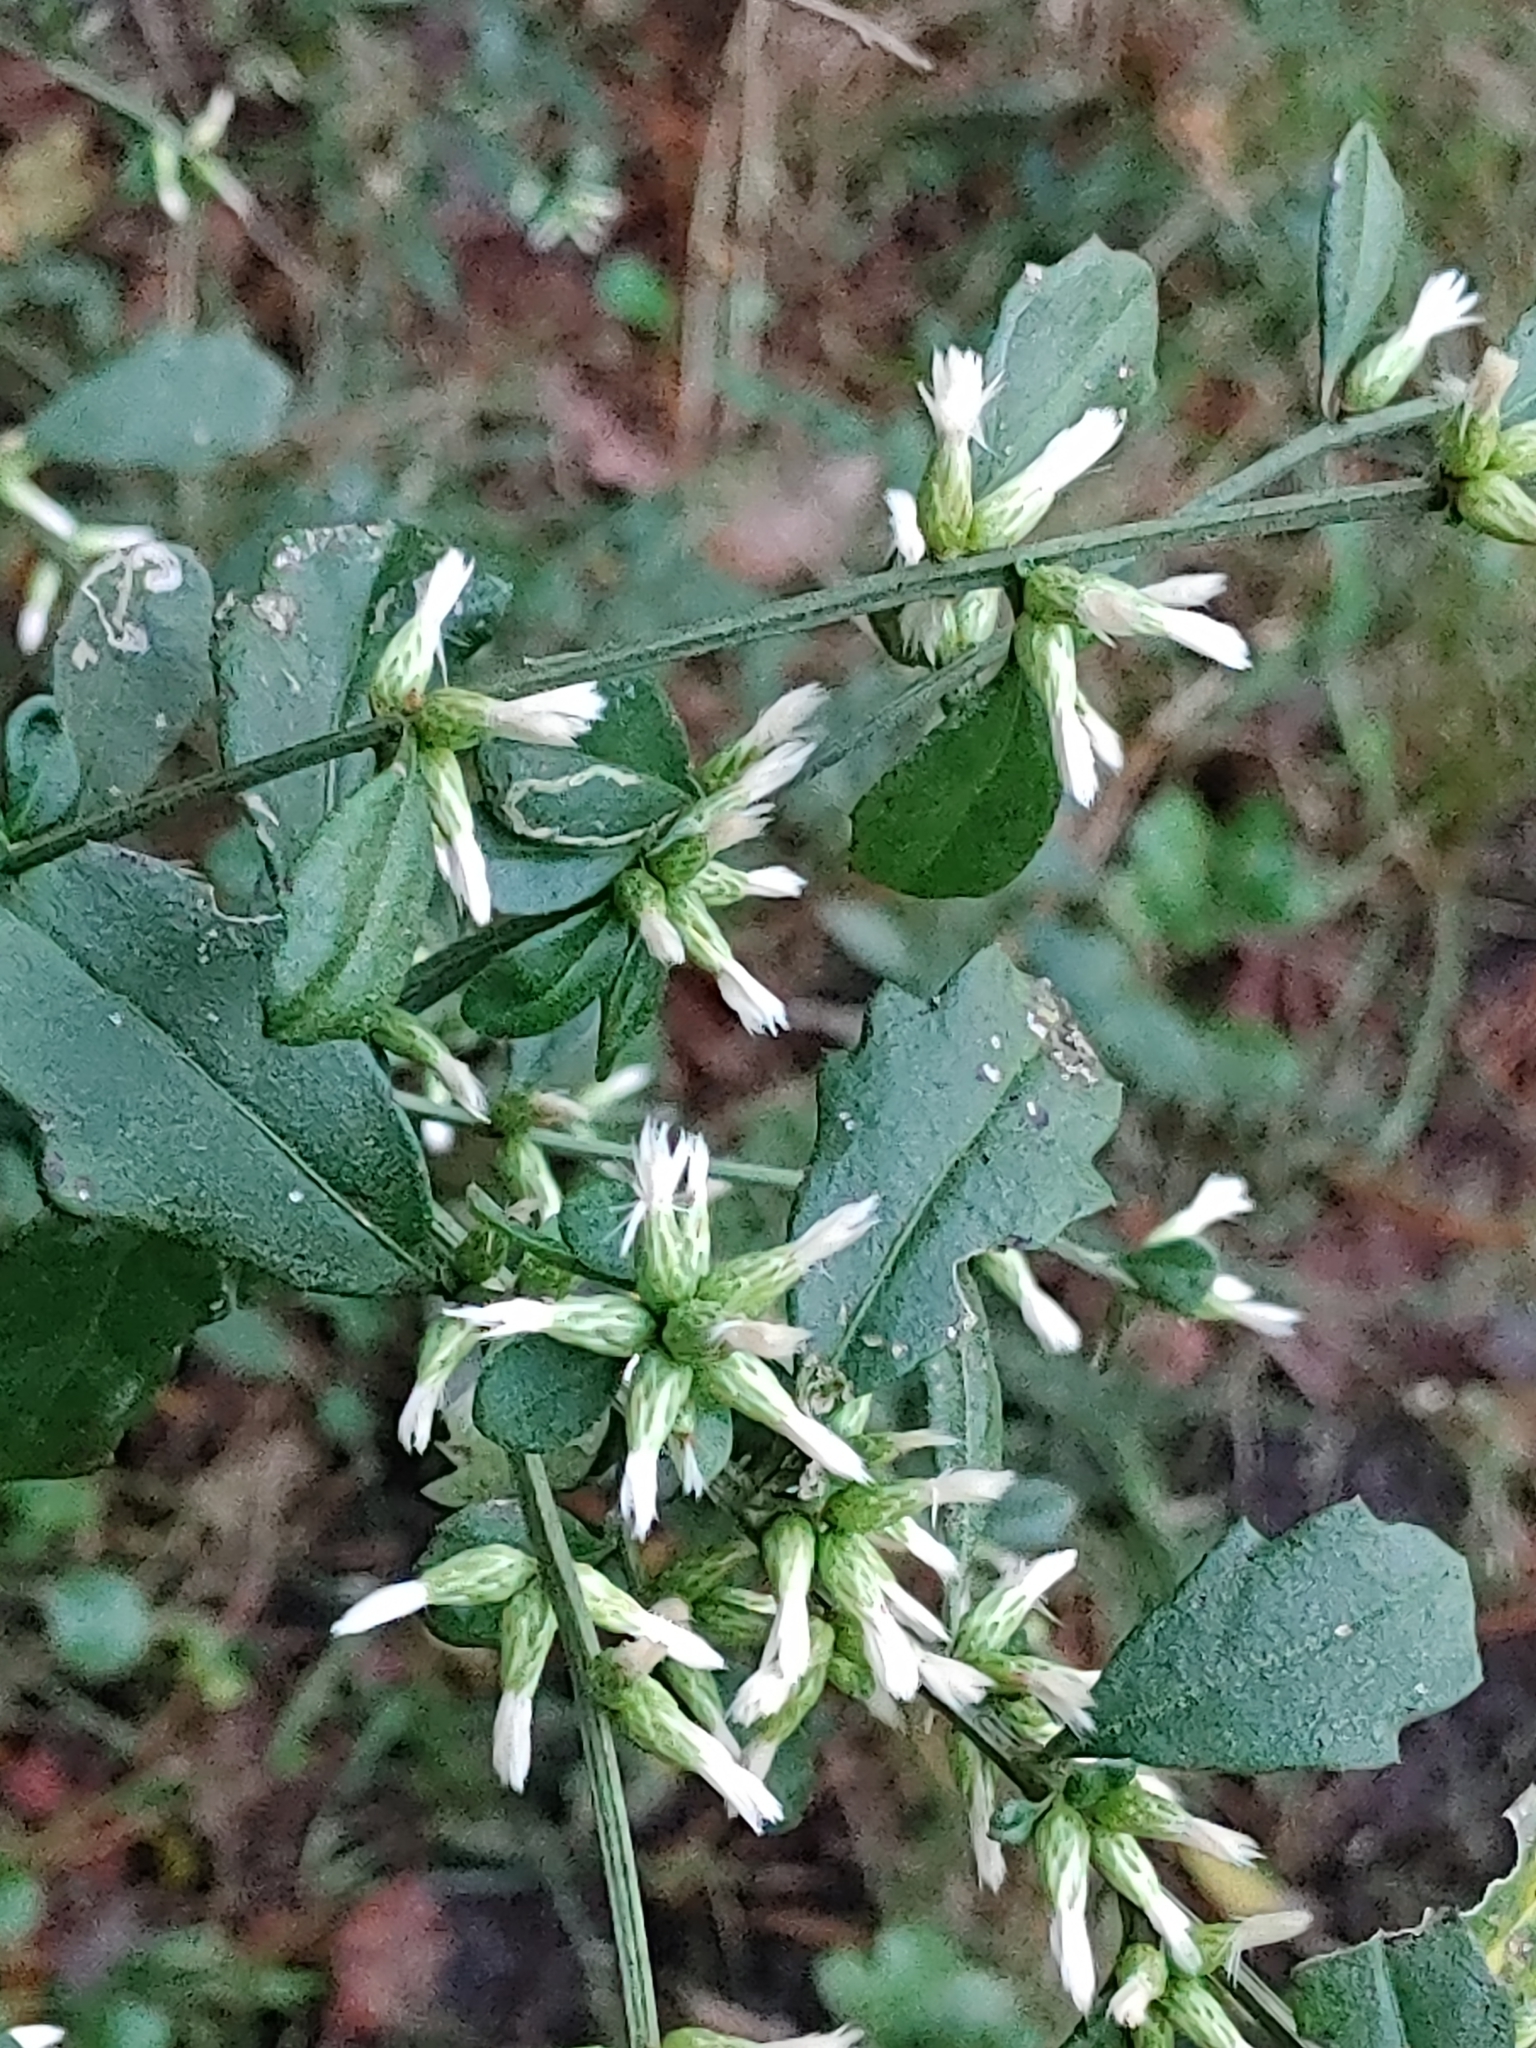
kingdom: Plantae
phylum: Tracheophyta
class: Magnoliopsida
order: Asterales
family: Asteraceae
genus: Baccharis
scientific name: Baccharis glomeruliflora
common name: Silverling groundsel bush
